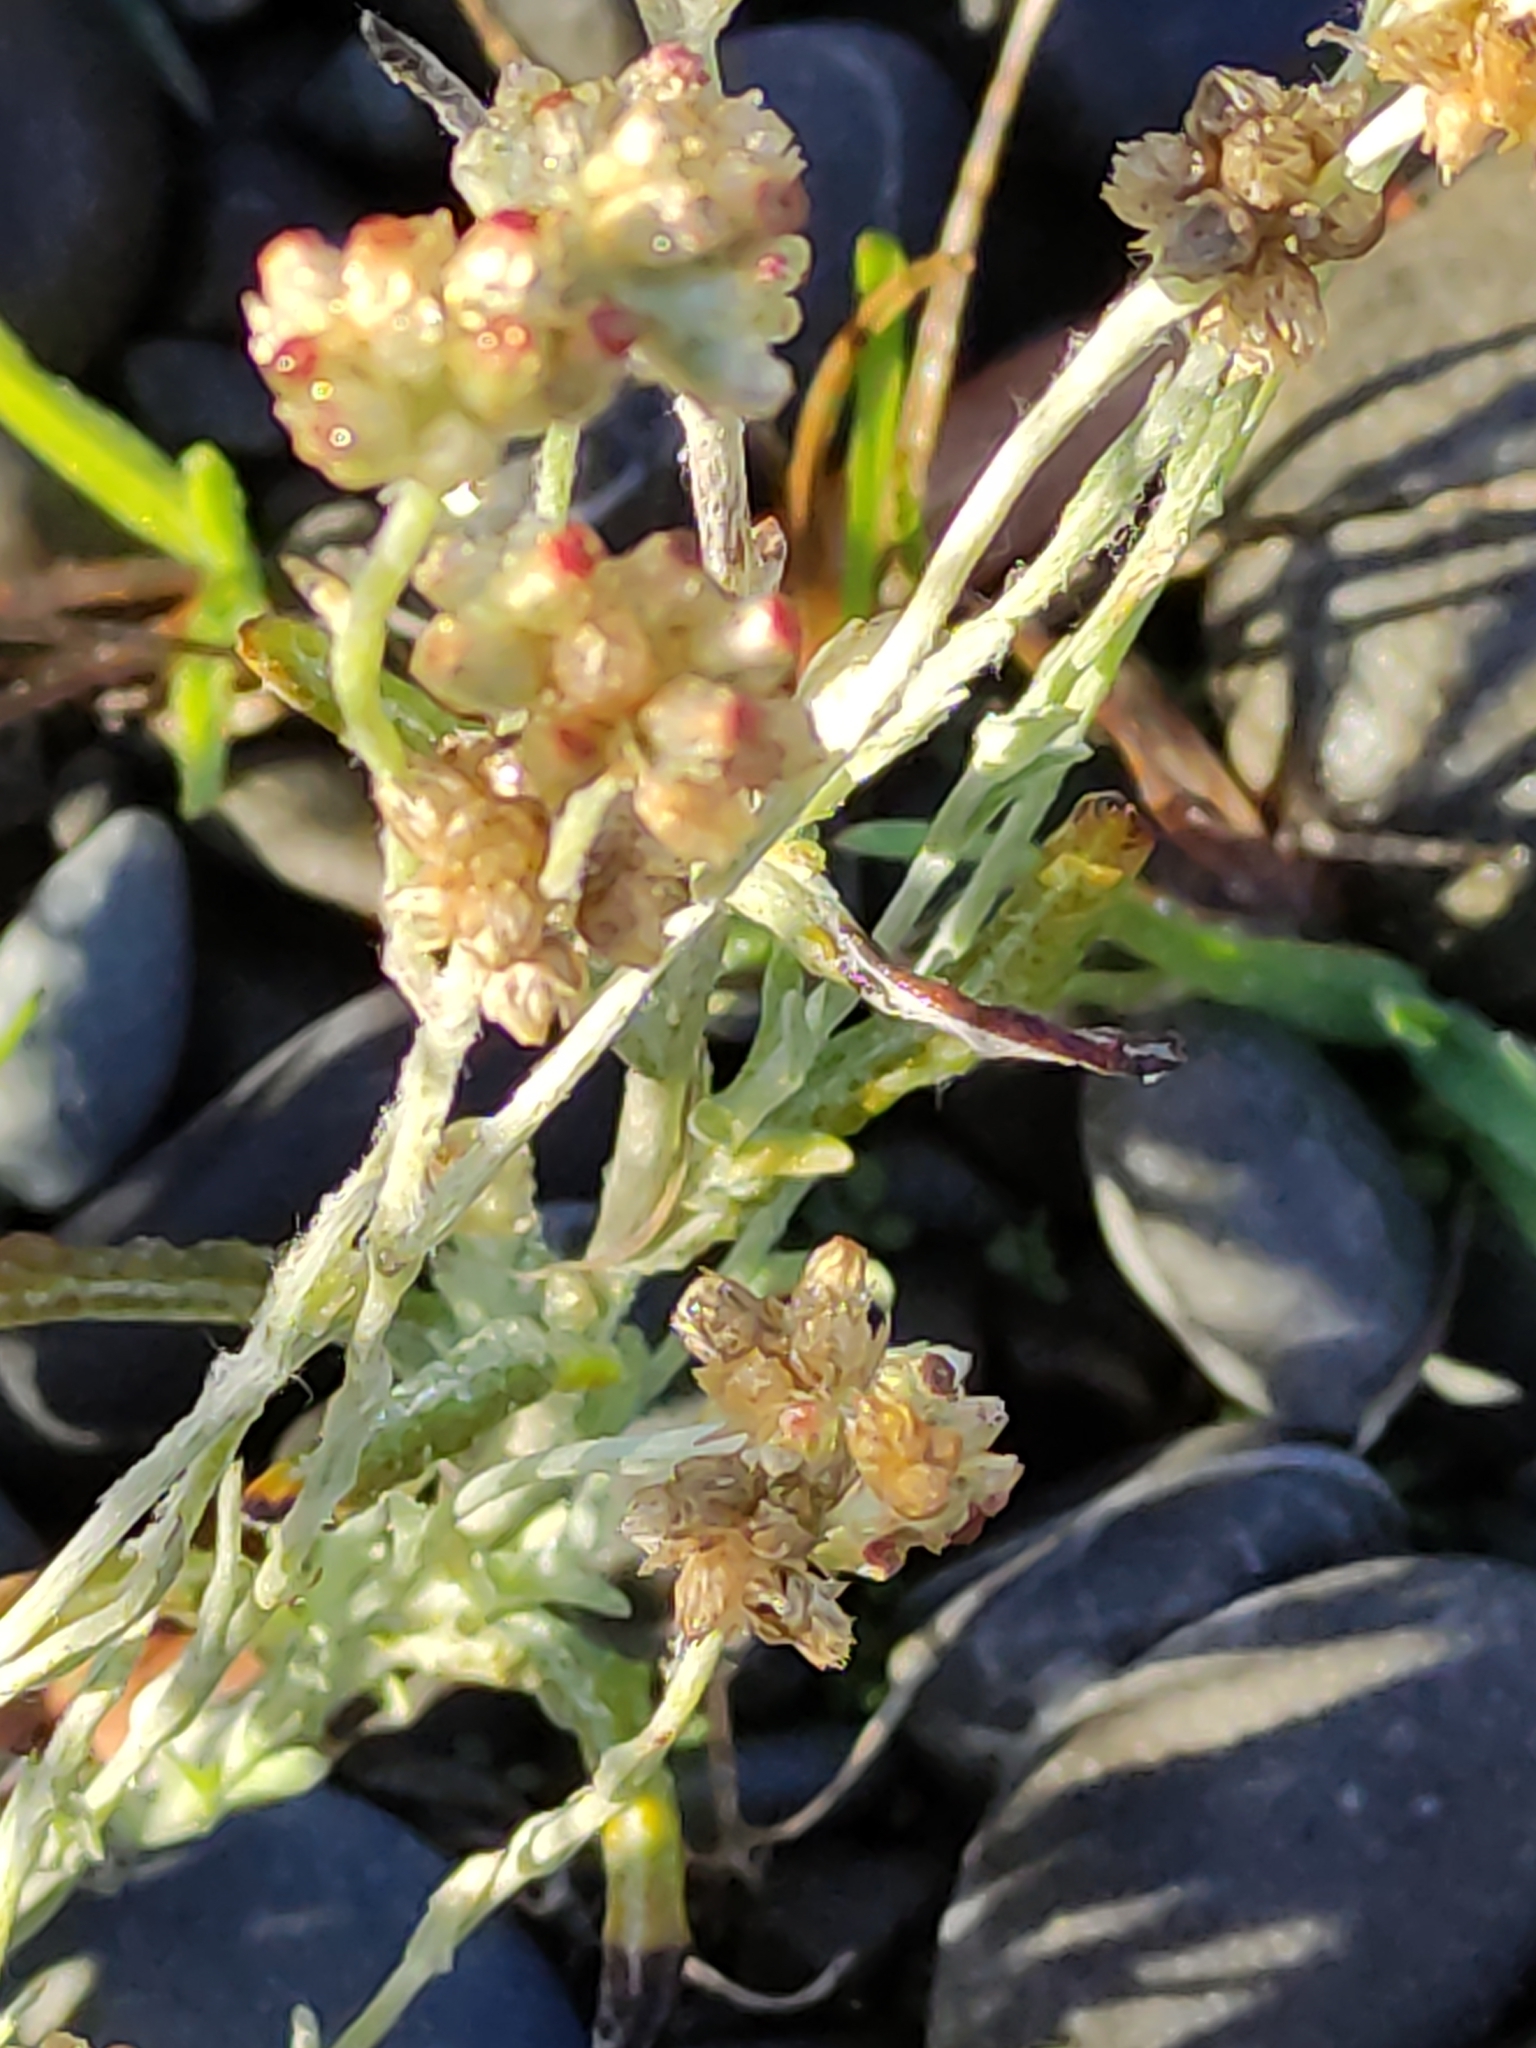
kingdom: Plantae
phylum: Tracheophyta
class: Magnoliopsida
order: Asterales
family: Asteraceae
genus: Helichrysum
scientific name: Helichrysum luteoalbum
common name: Daisy
